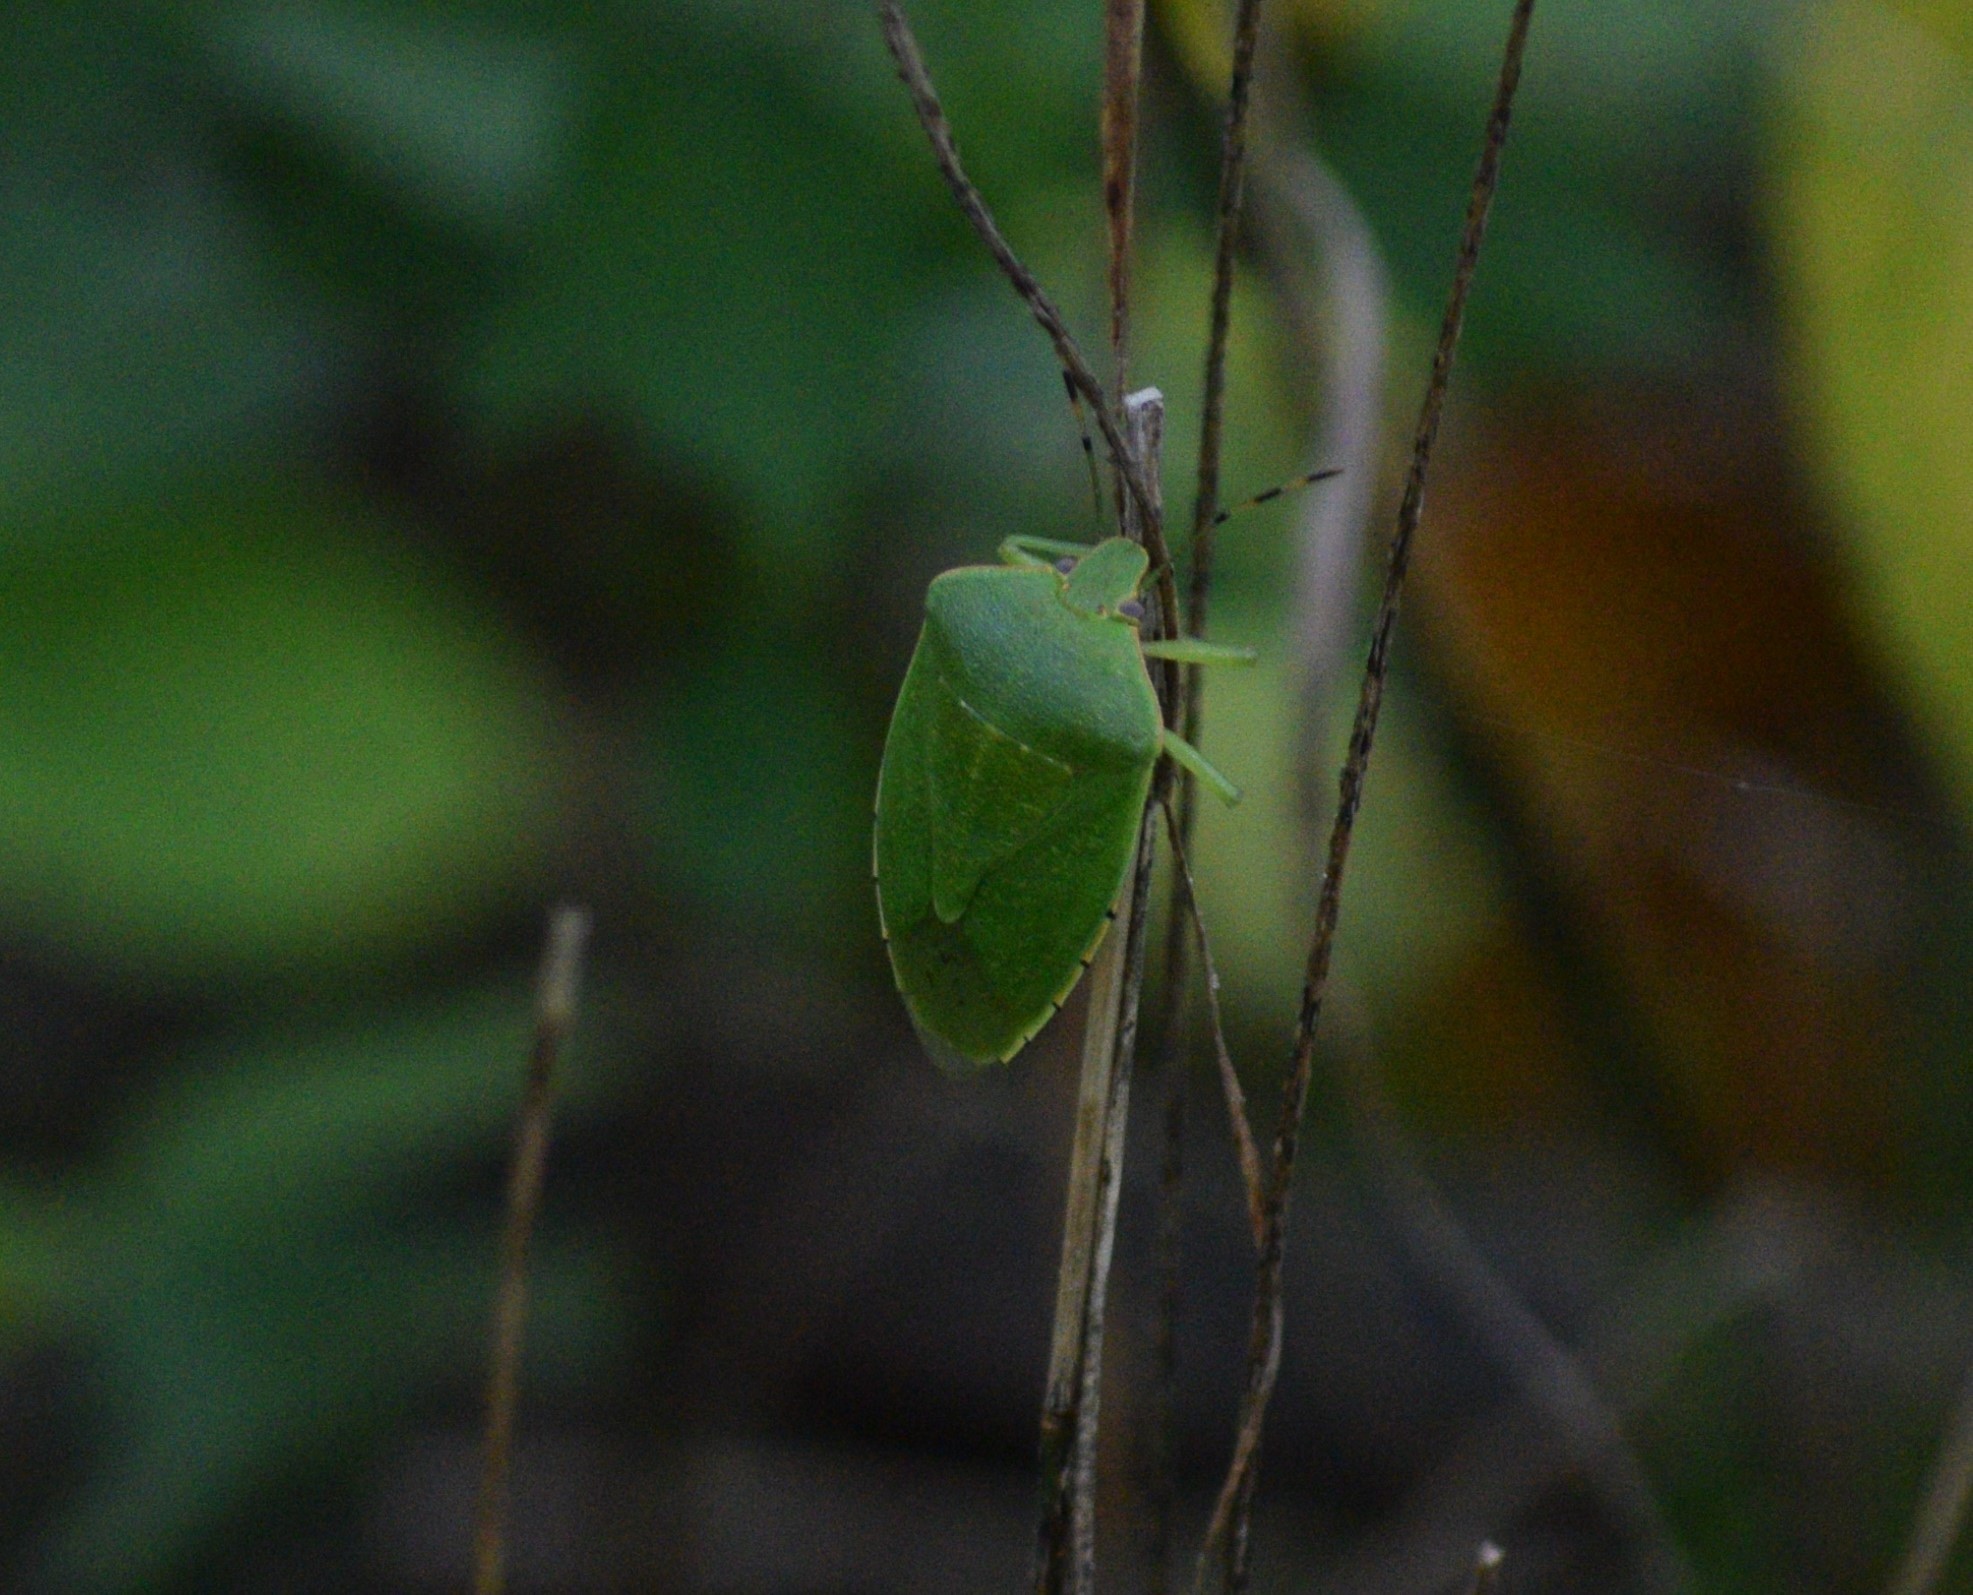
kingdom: Animalia
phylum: Arthropoda
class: Insecta
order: Hemiptera
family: Pentatomidae
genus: Chinavia
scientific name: Chinavia hilaris
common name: Green stink bug
